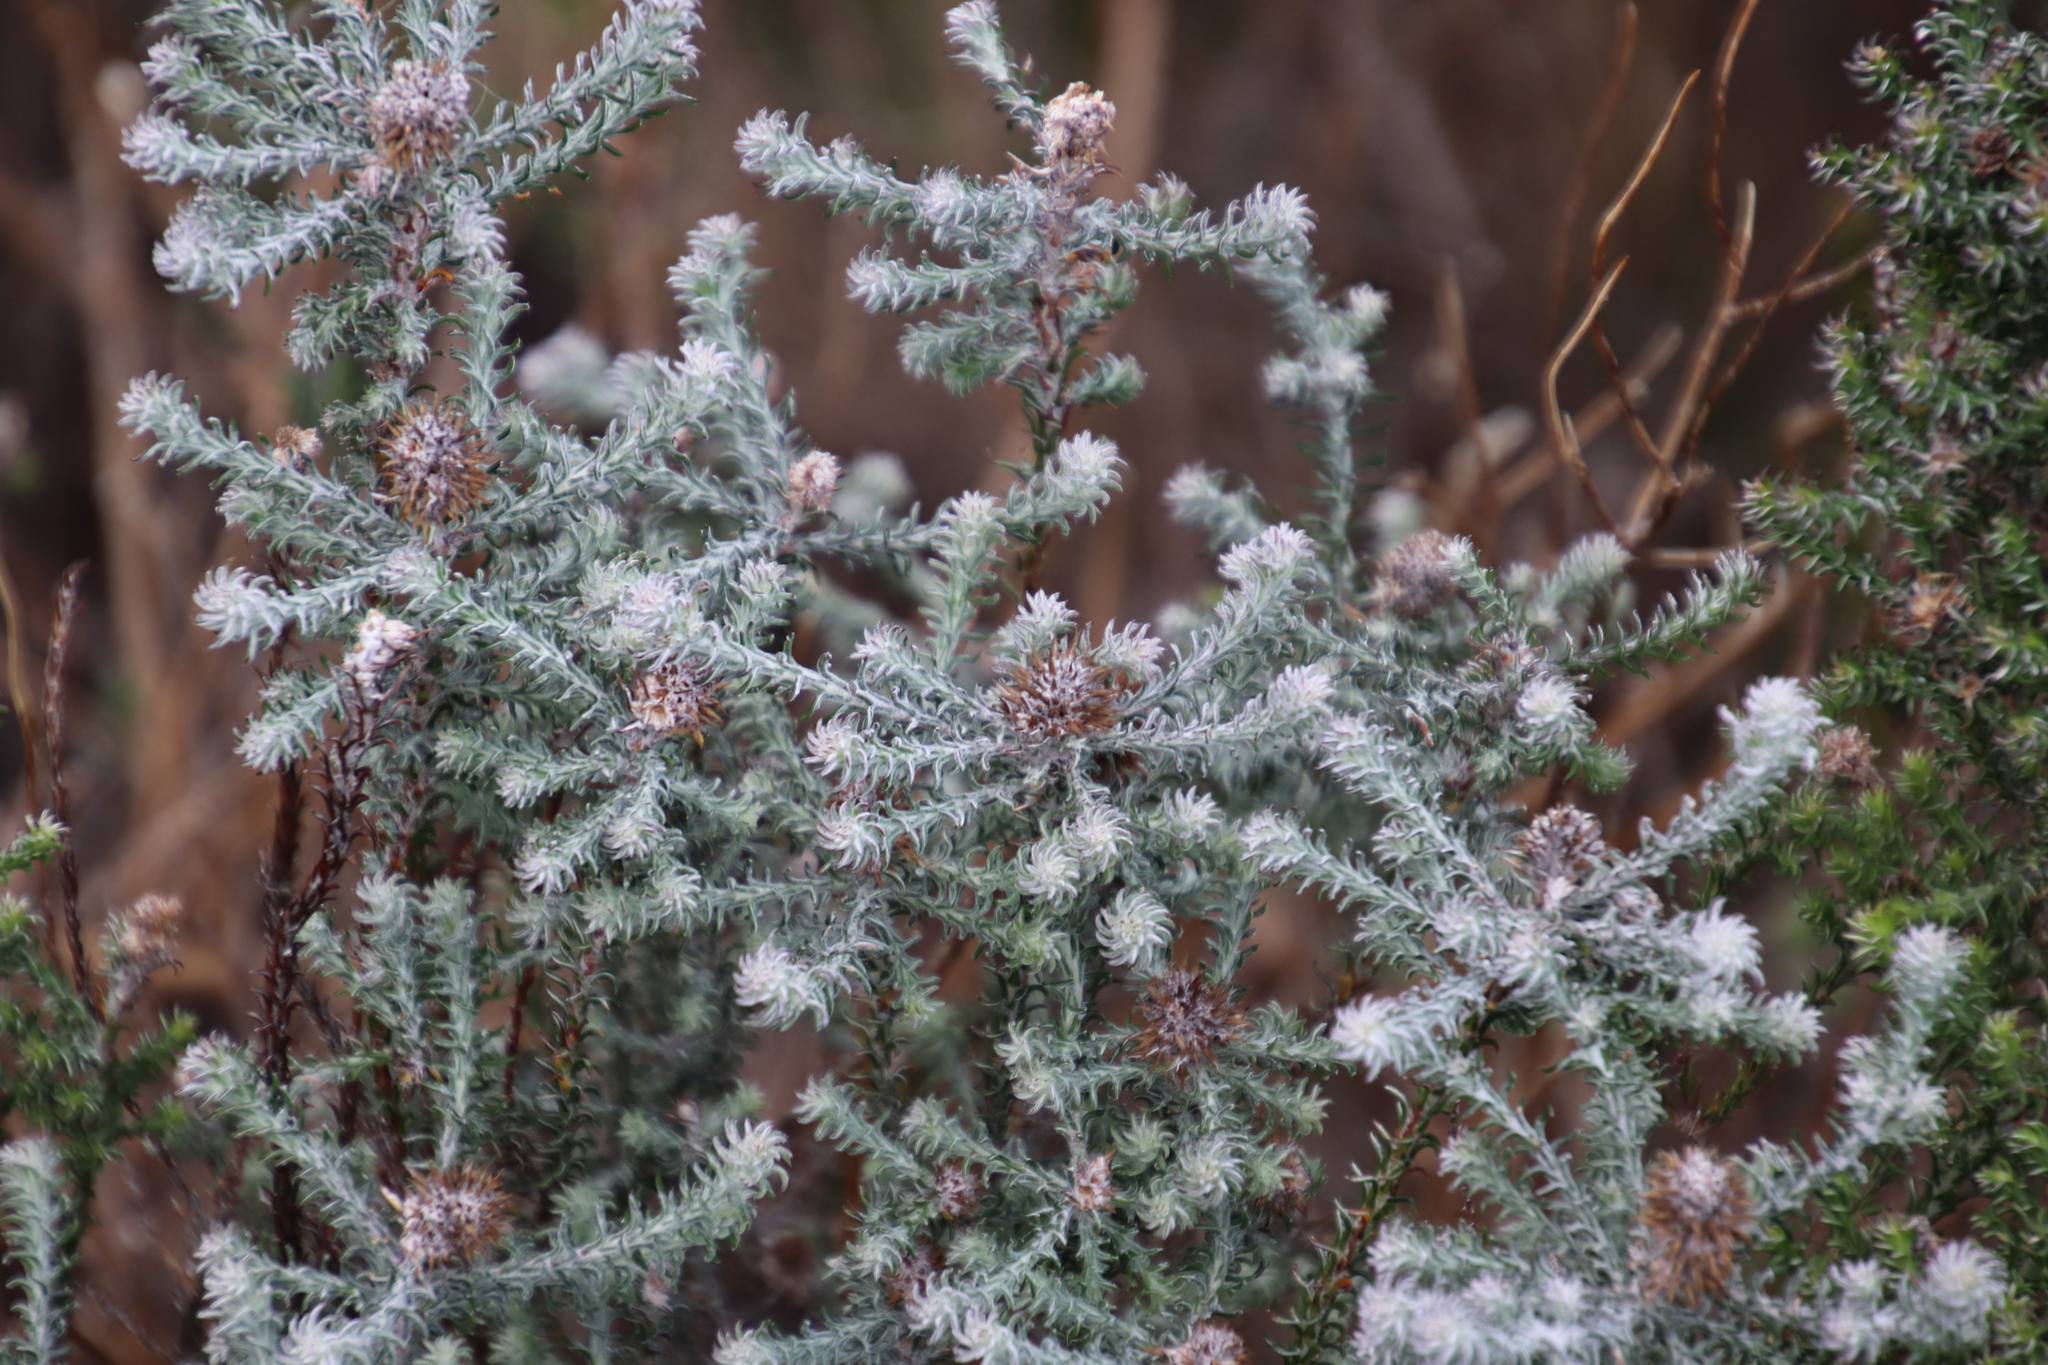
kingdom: Plantae
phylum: Tracheophyta
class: Magnoliopsida
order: Asterales
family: Asteraceae
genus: Seriphium
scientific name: Seriphium spirale
